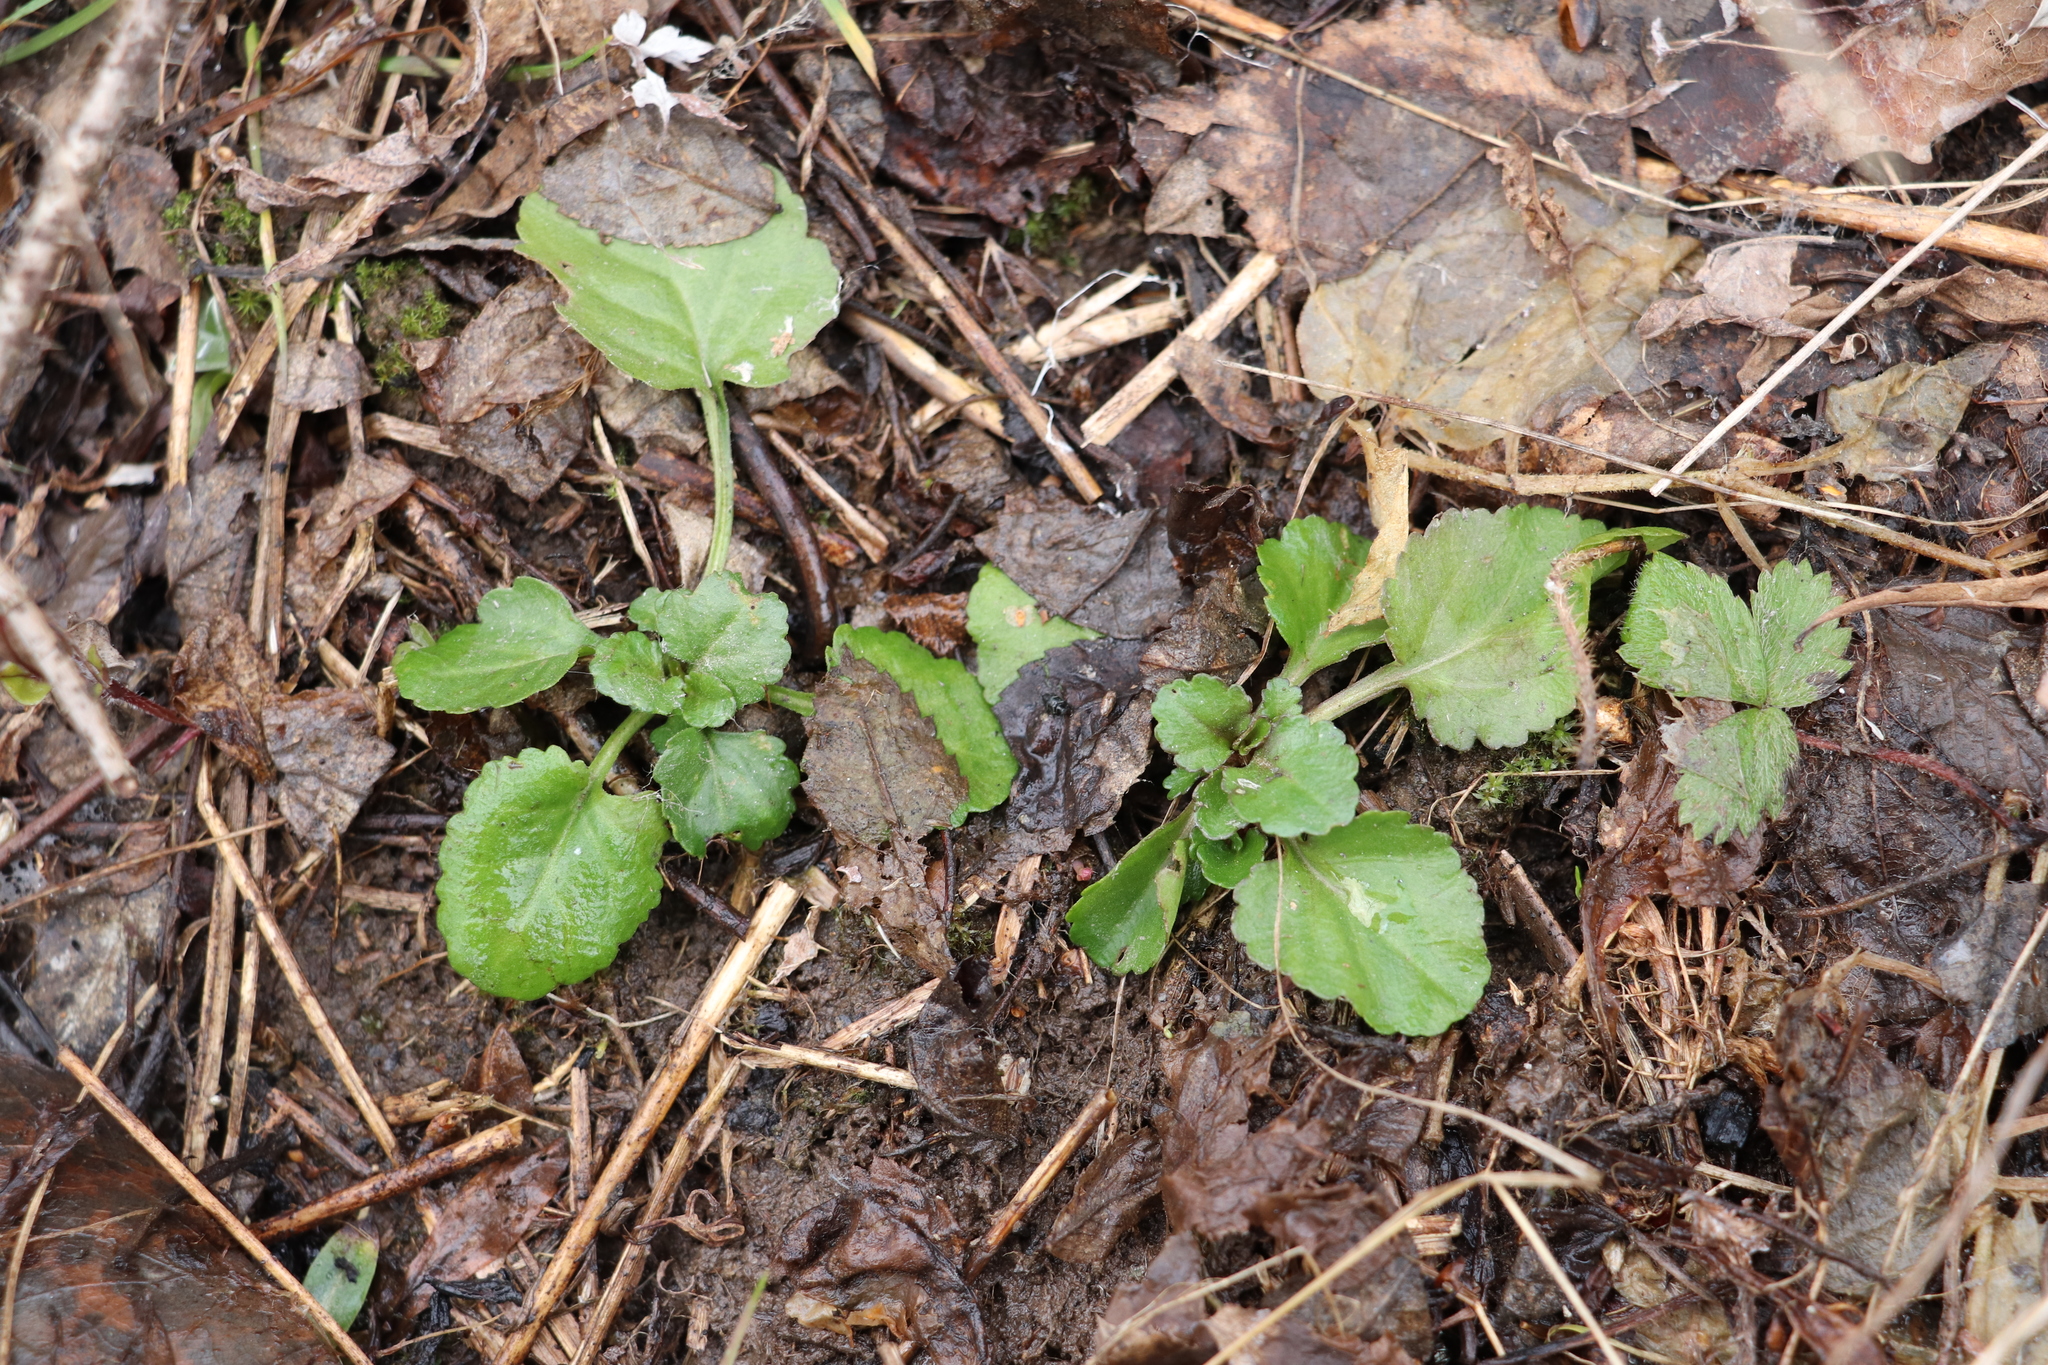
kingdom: Plantae
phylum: Tracheophyta
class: Magnoliopsida
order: Asterales
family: Asteraceae
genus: Leucanthemum
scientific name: Leucanthemum ircutianum
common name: Daisy
